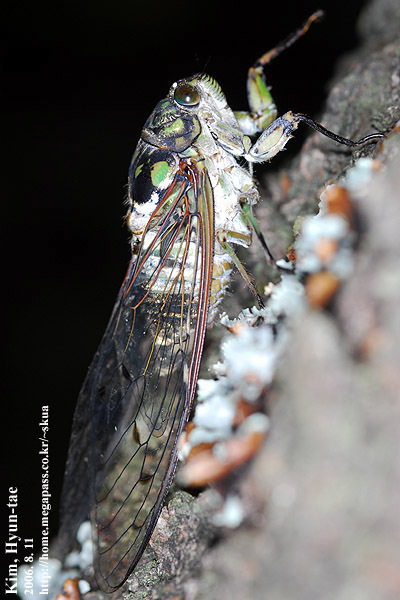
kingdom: Animalia
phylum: Arthropoda
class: Insecta
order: Hemiptera
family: Cicadidae
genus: Hyalessa
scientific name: Hyalessa maculaticollis
